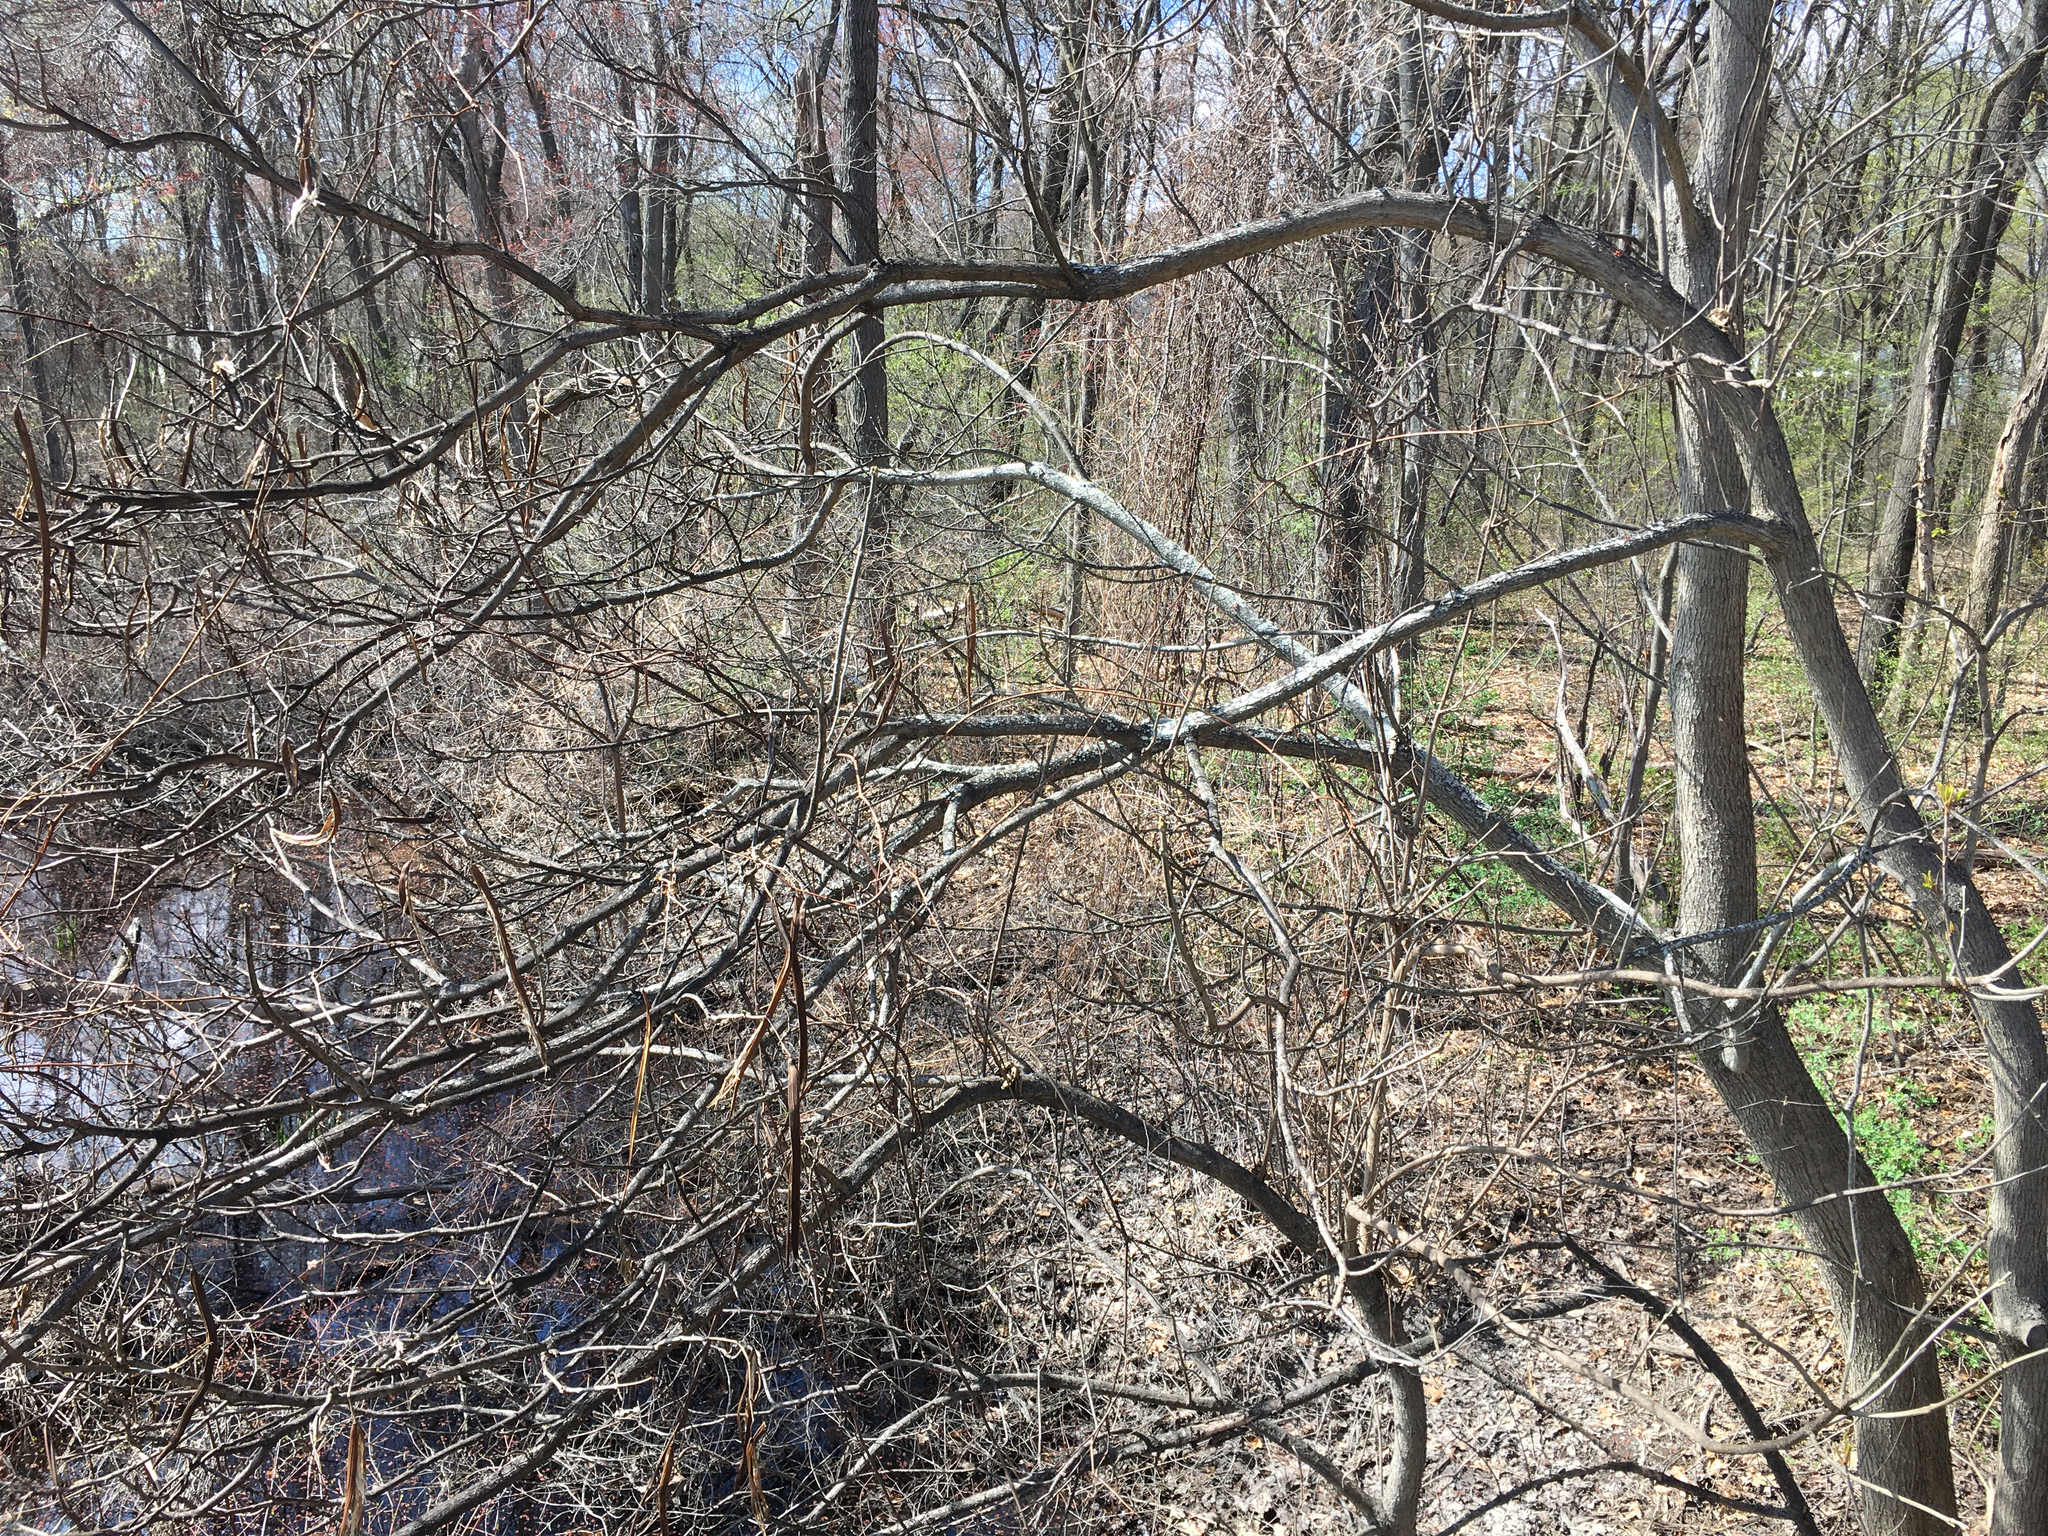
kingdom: Plantae
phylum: Tracheophyta
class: Magnoliopsida
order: Lamiales
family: Bignoniaceae
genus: Catalpa
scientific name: Catalpa speciosa
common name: Northern catalpa
